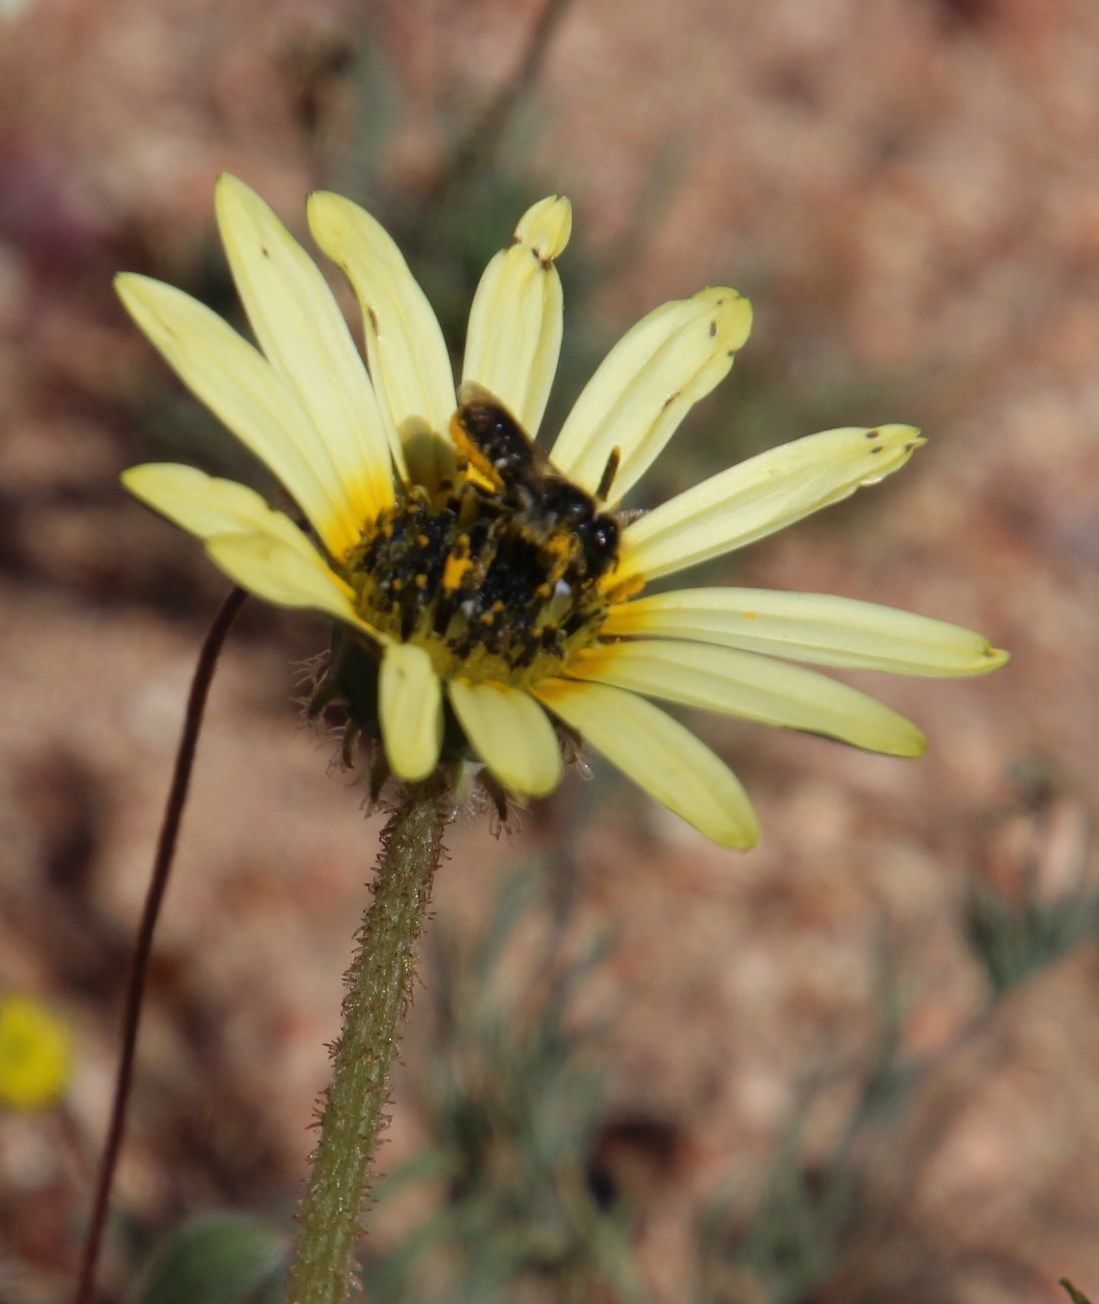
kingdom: Plantae
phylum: Tracheophyta
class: Magnoliopsida
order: Asterales
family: Asteraceae
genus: Arctotheca
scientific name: Arctotheca calendula
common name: Capeweed
